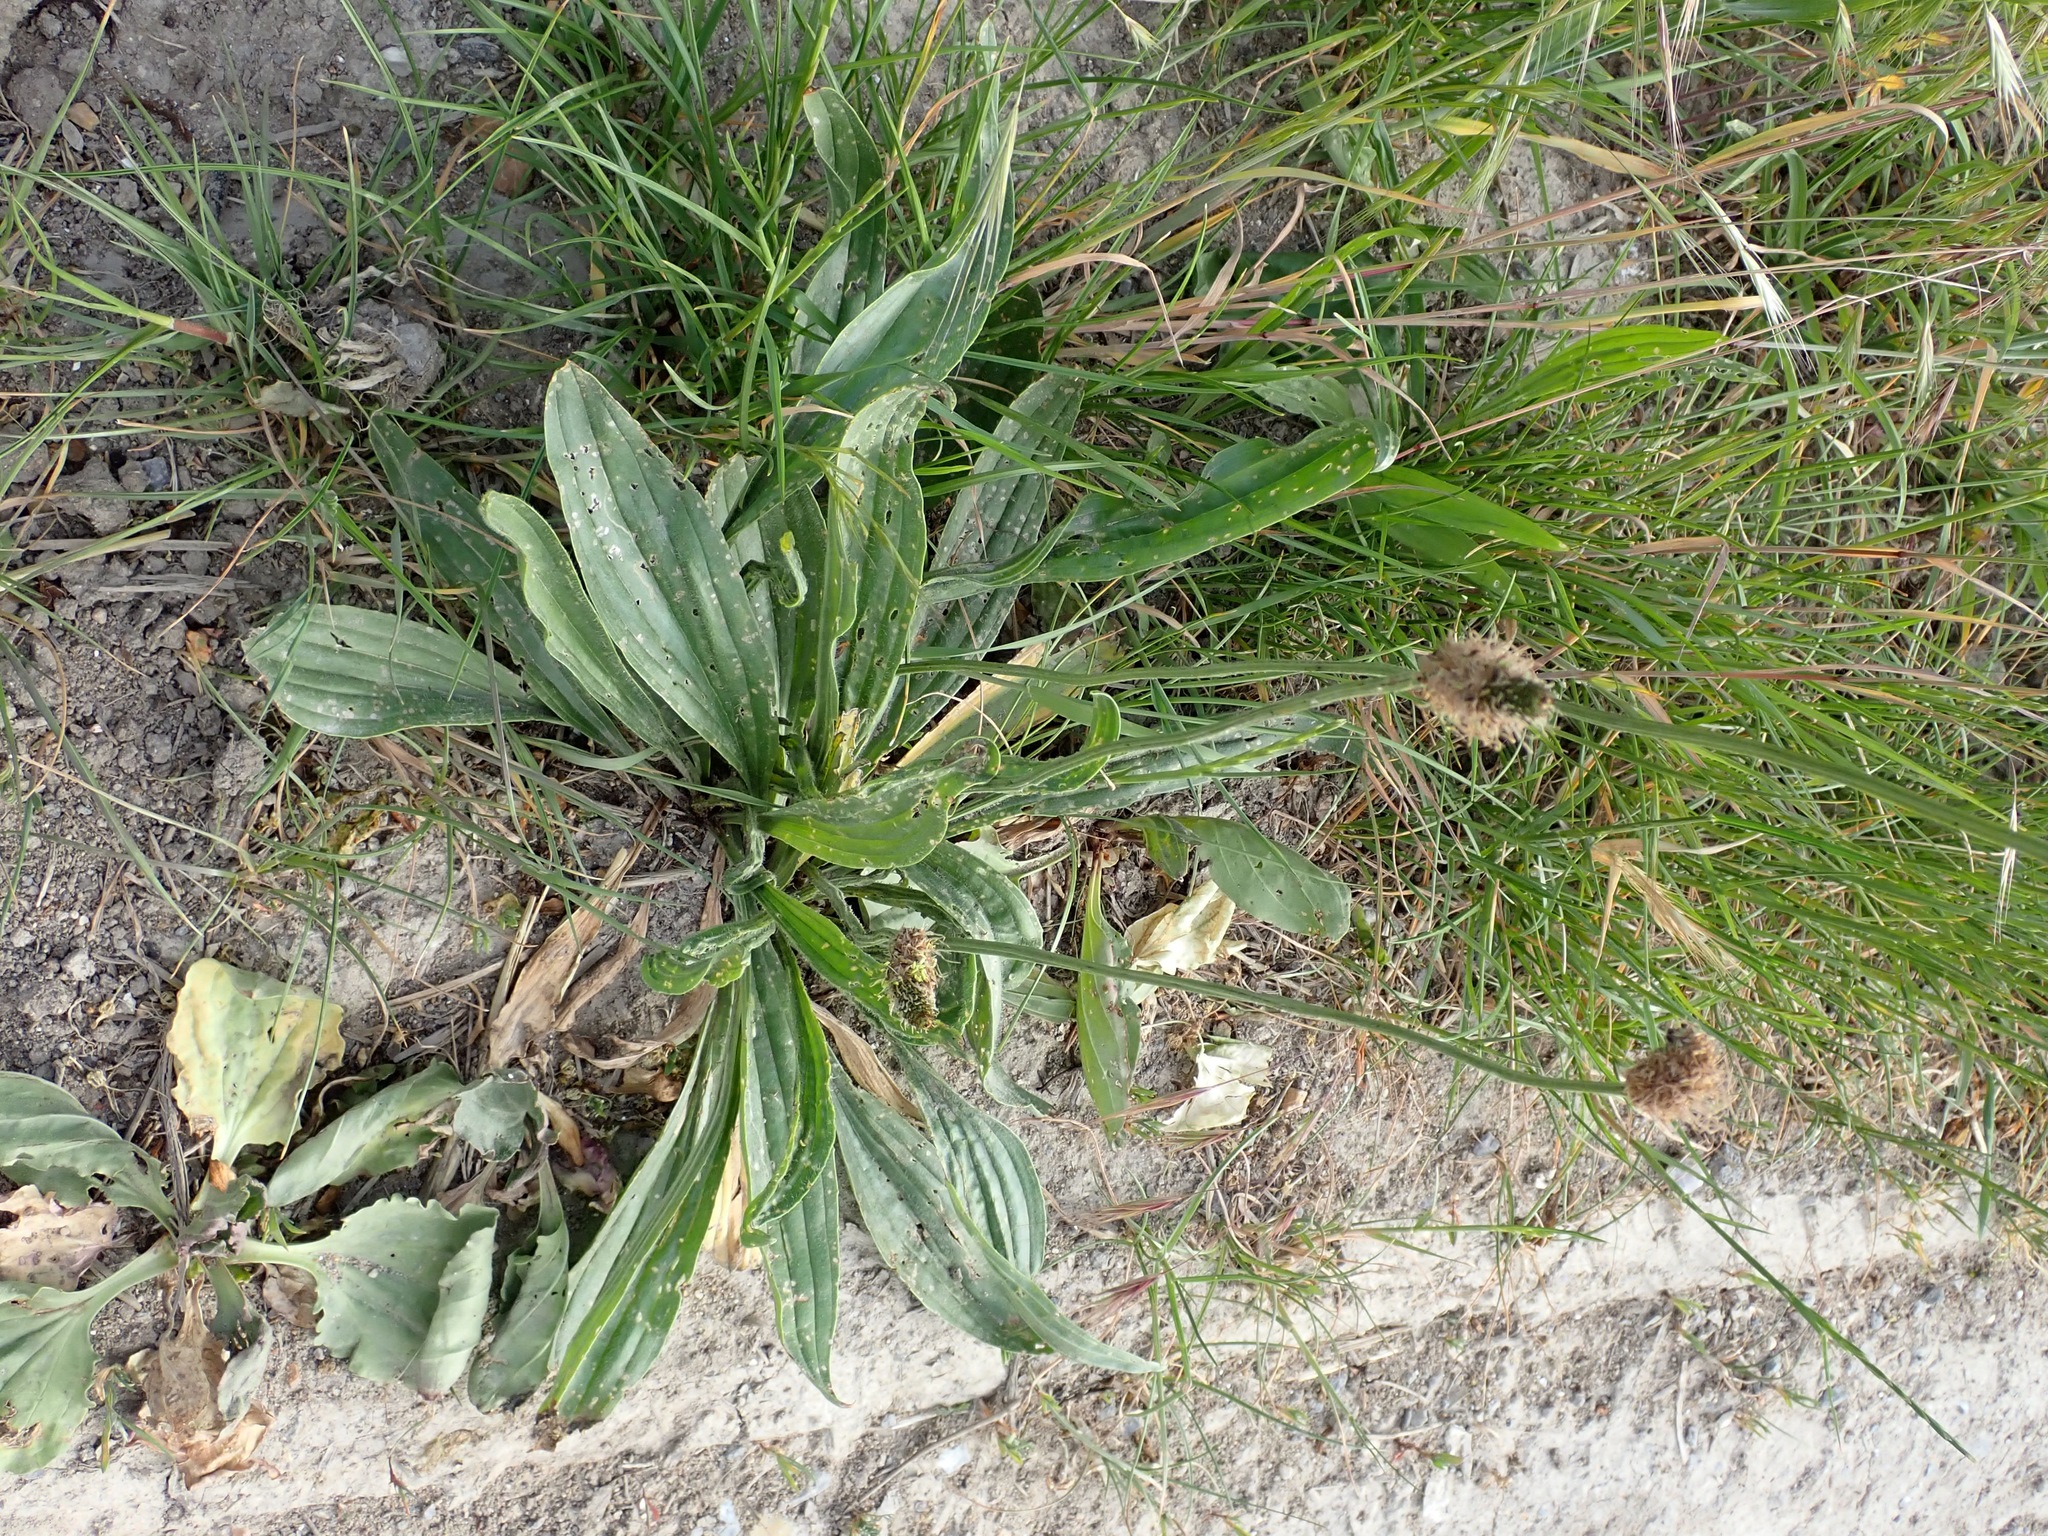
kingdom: Plantae
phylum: Tracheophyta
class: Magnoliopsida
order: Lamiales
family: Plantaginaceae
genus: Plantago
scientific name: Plantago lanceolata
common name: Ribwort plantain
